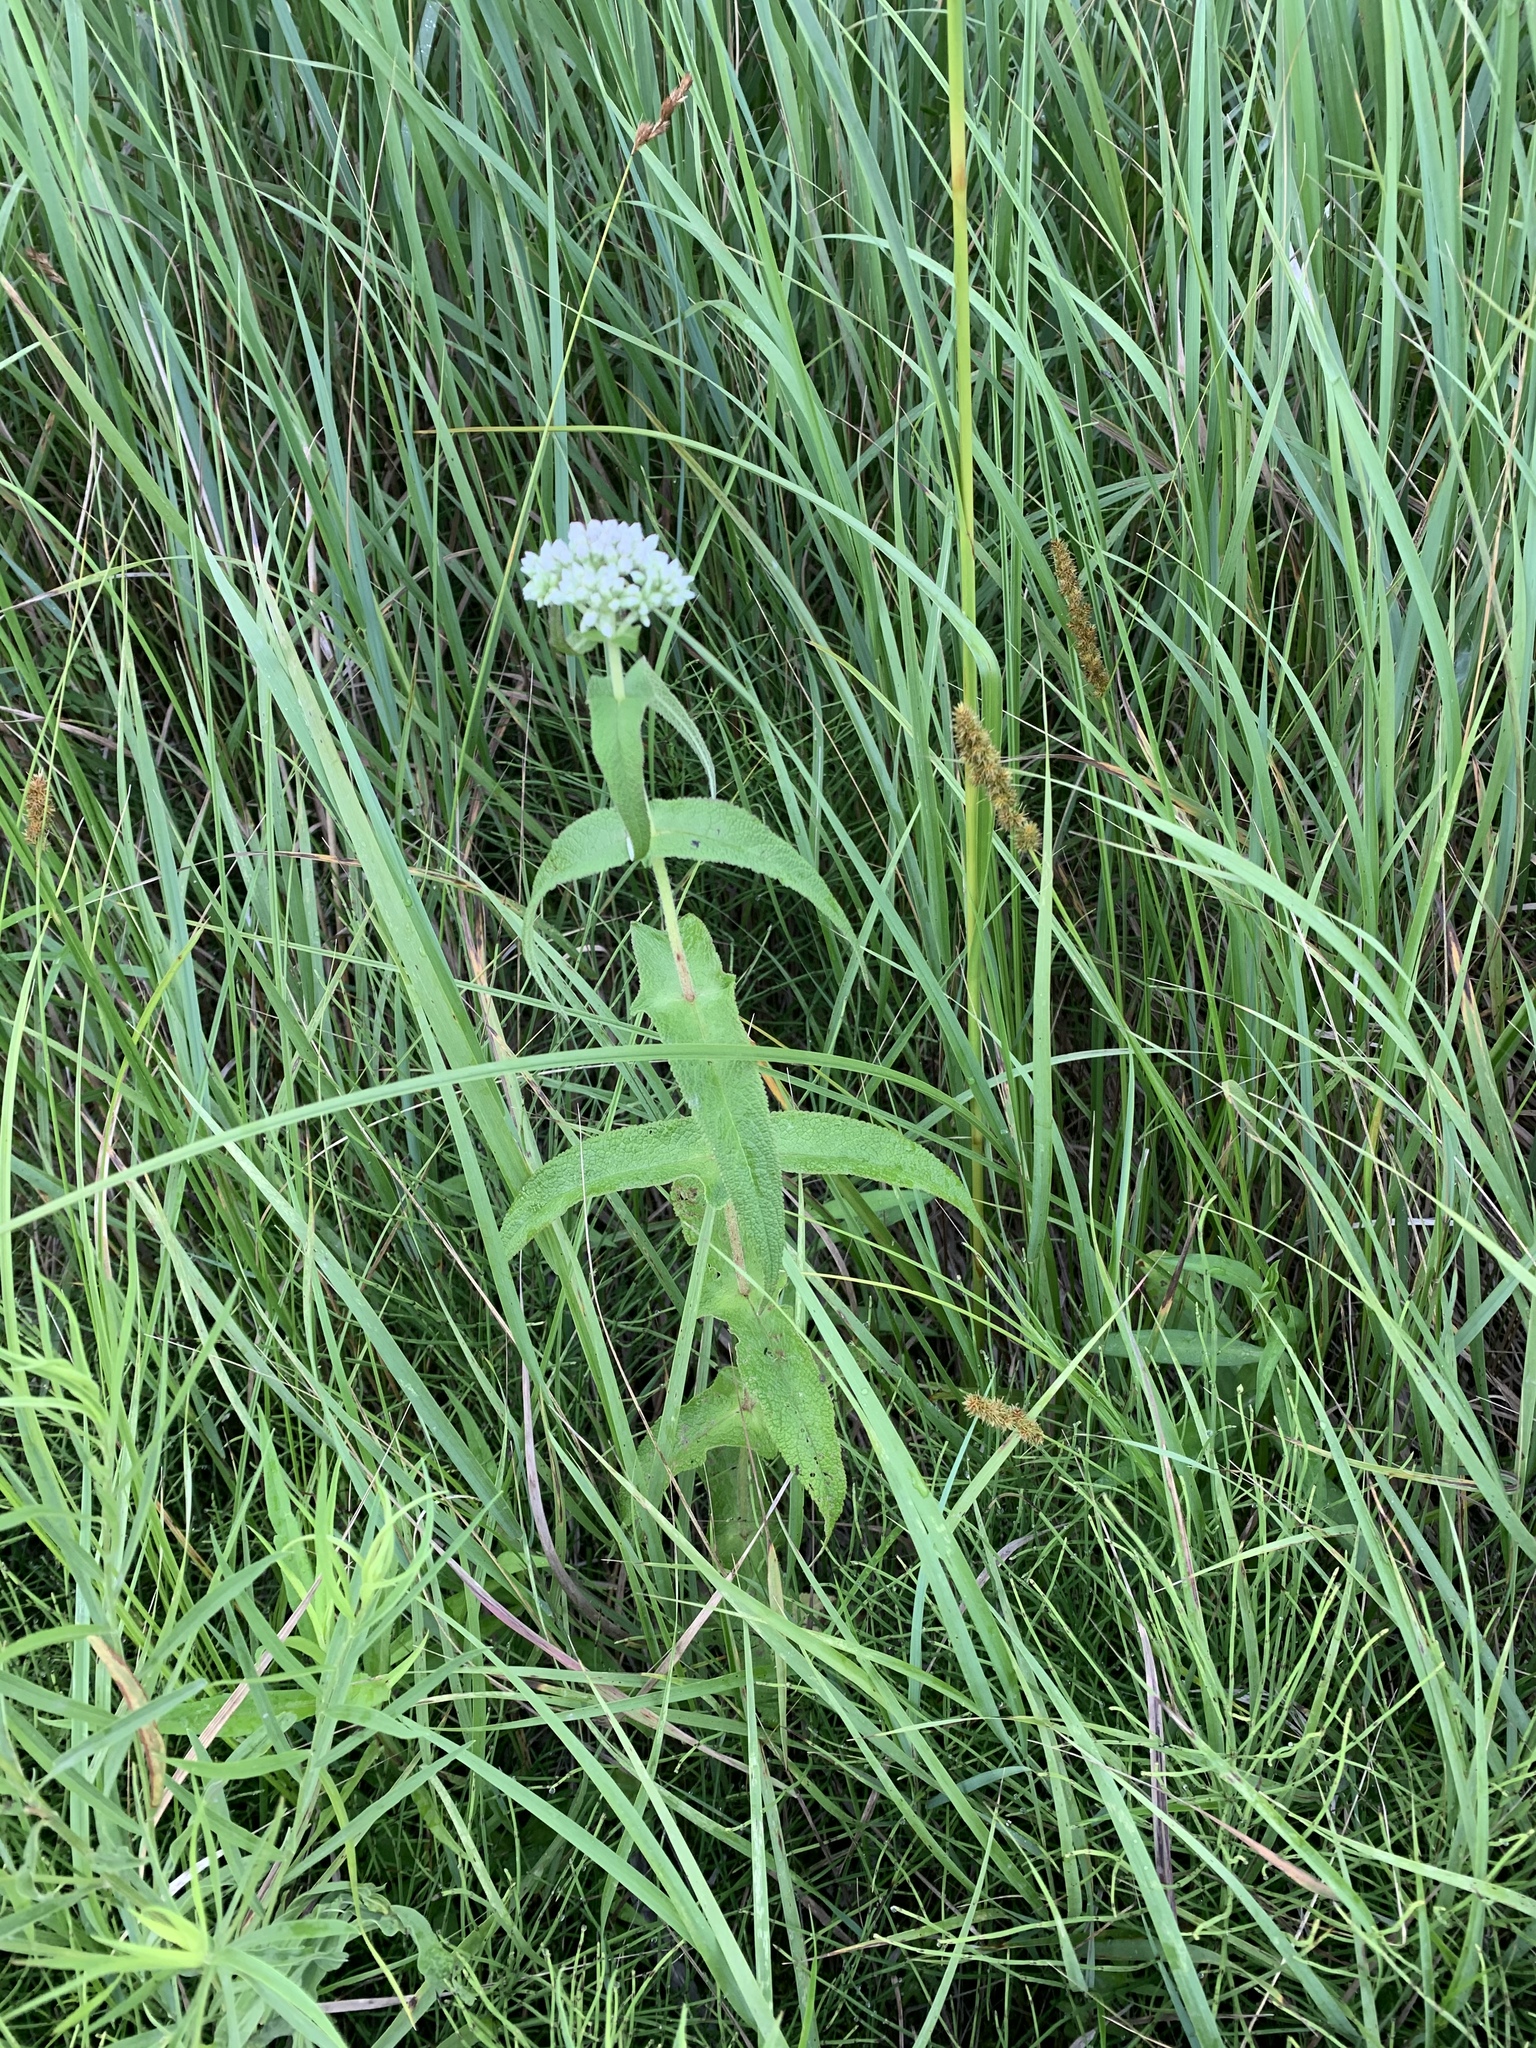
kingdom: Plantae
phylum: Tracheophyta
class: Magnoliopsida
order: Asterales
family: Asteraceae
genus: Eupatorium
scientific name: Eupatorium perfoliatum
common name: Boneset
